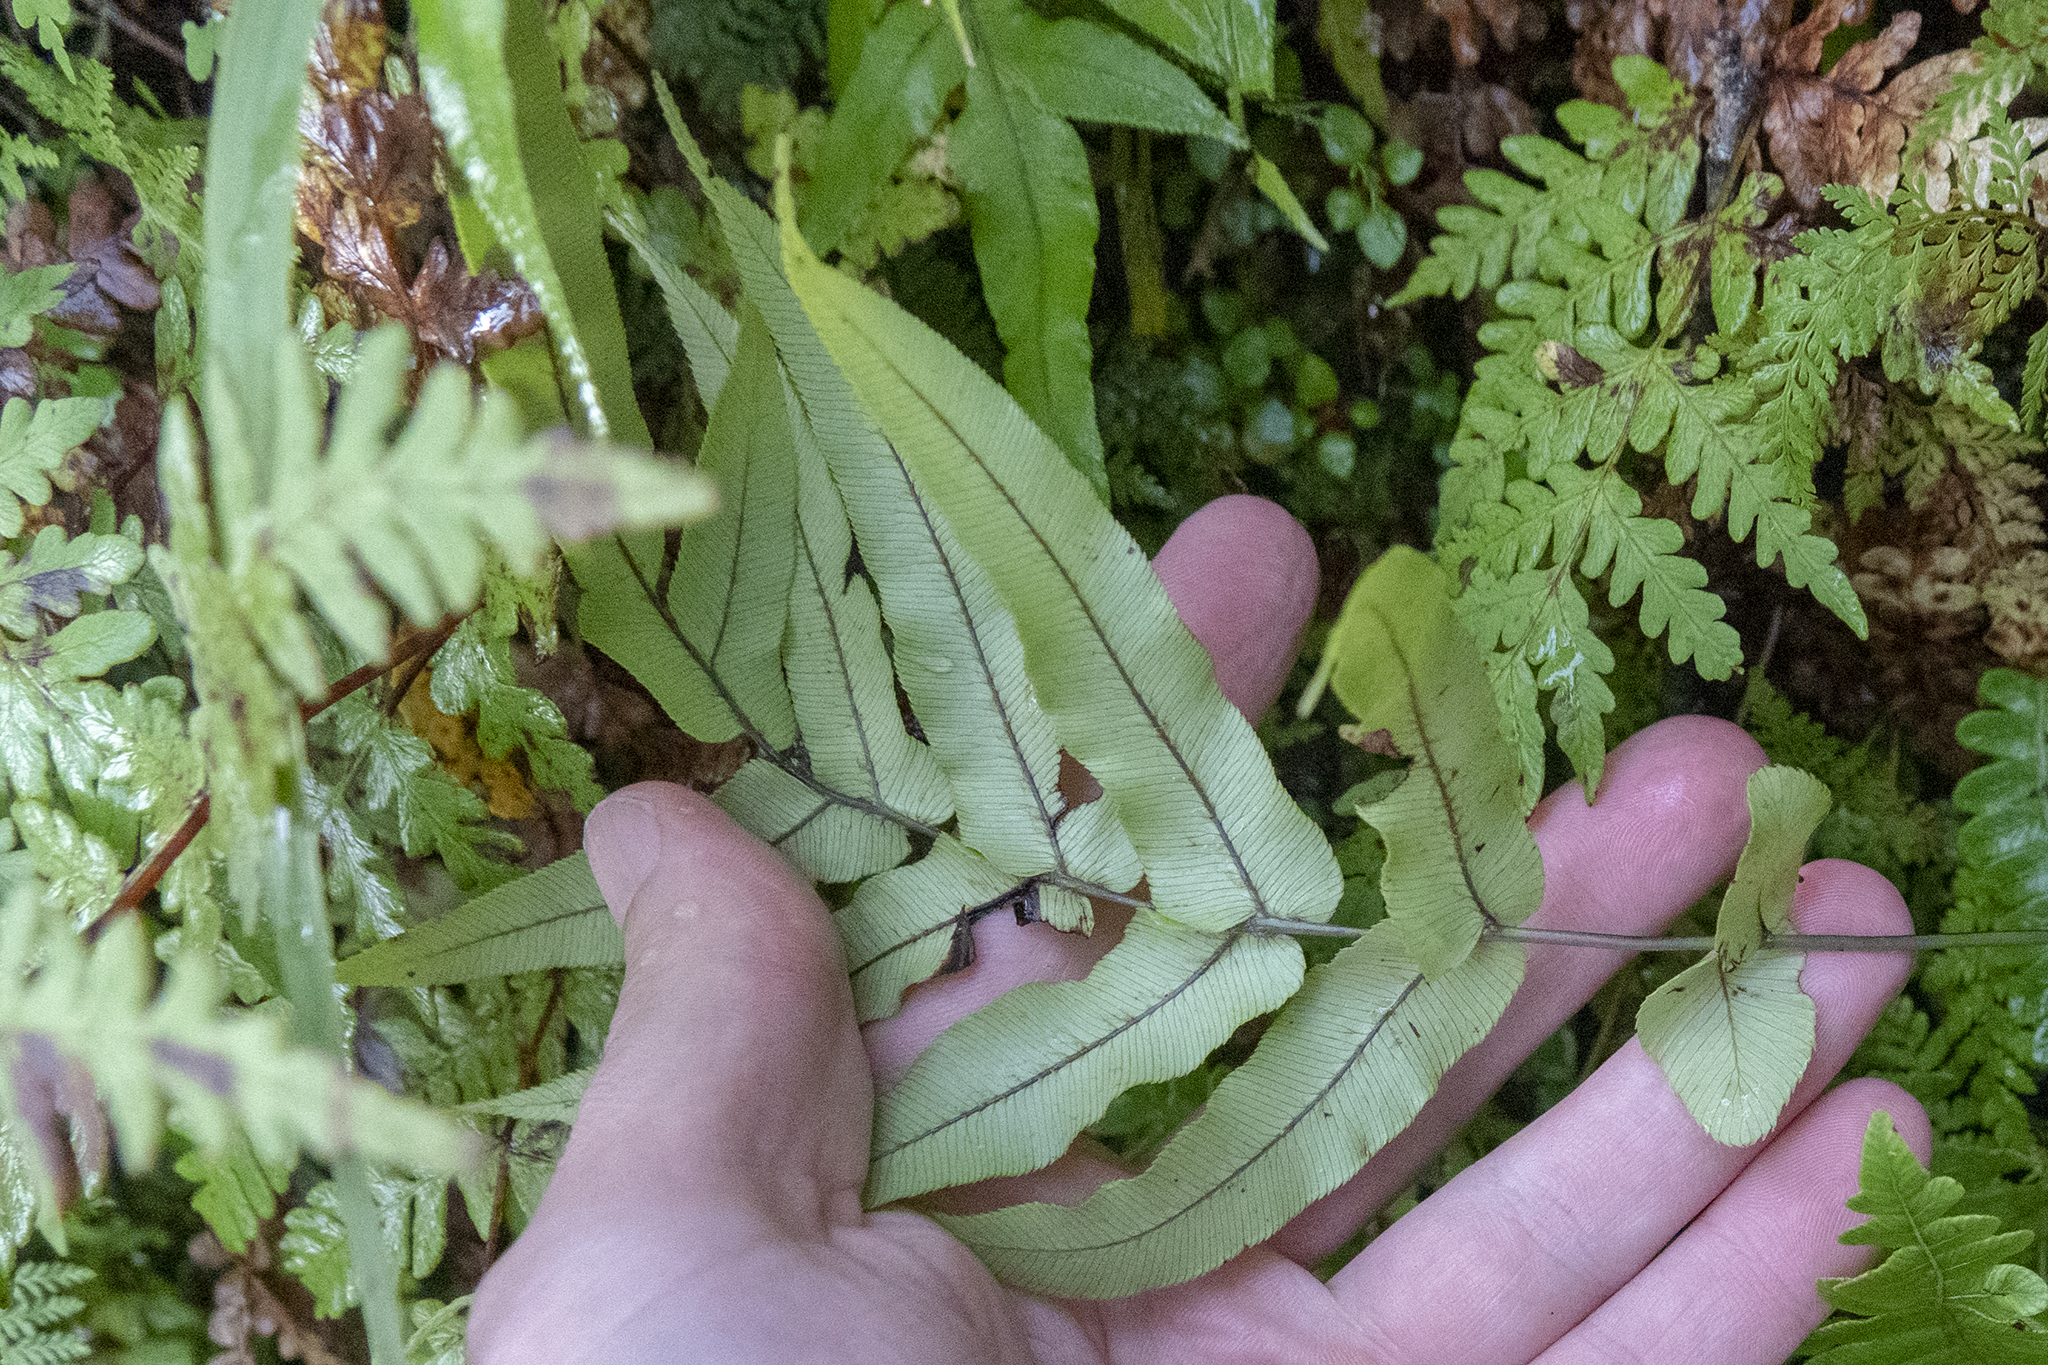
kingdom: Plantae
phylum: Tracheophyta
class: Polypodiopsida
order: Polypodiales
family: Blechnaceae
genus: Parablechnum
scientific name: Parablechnum novae-zelandiae
